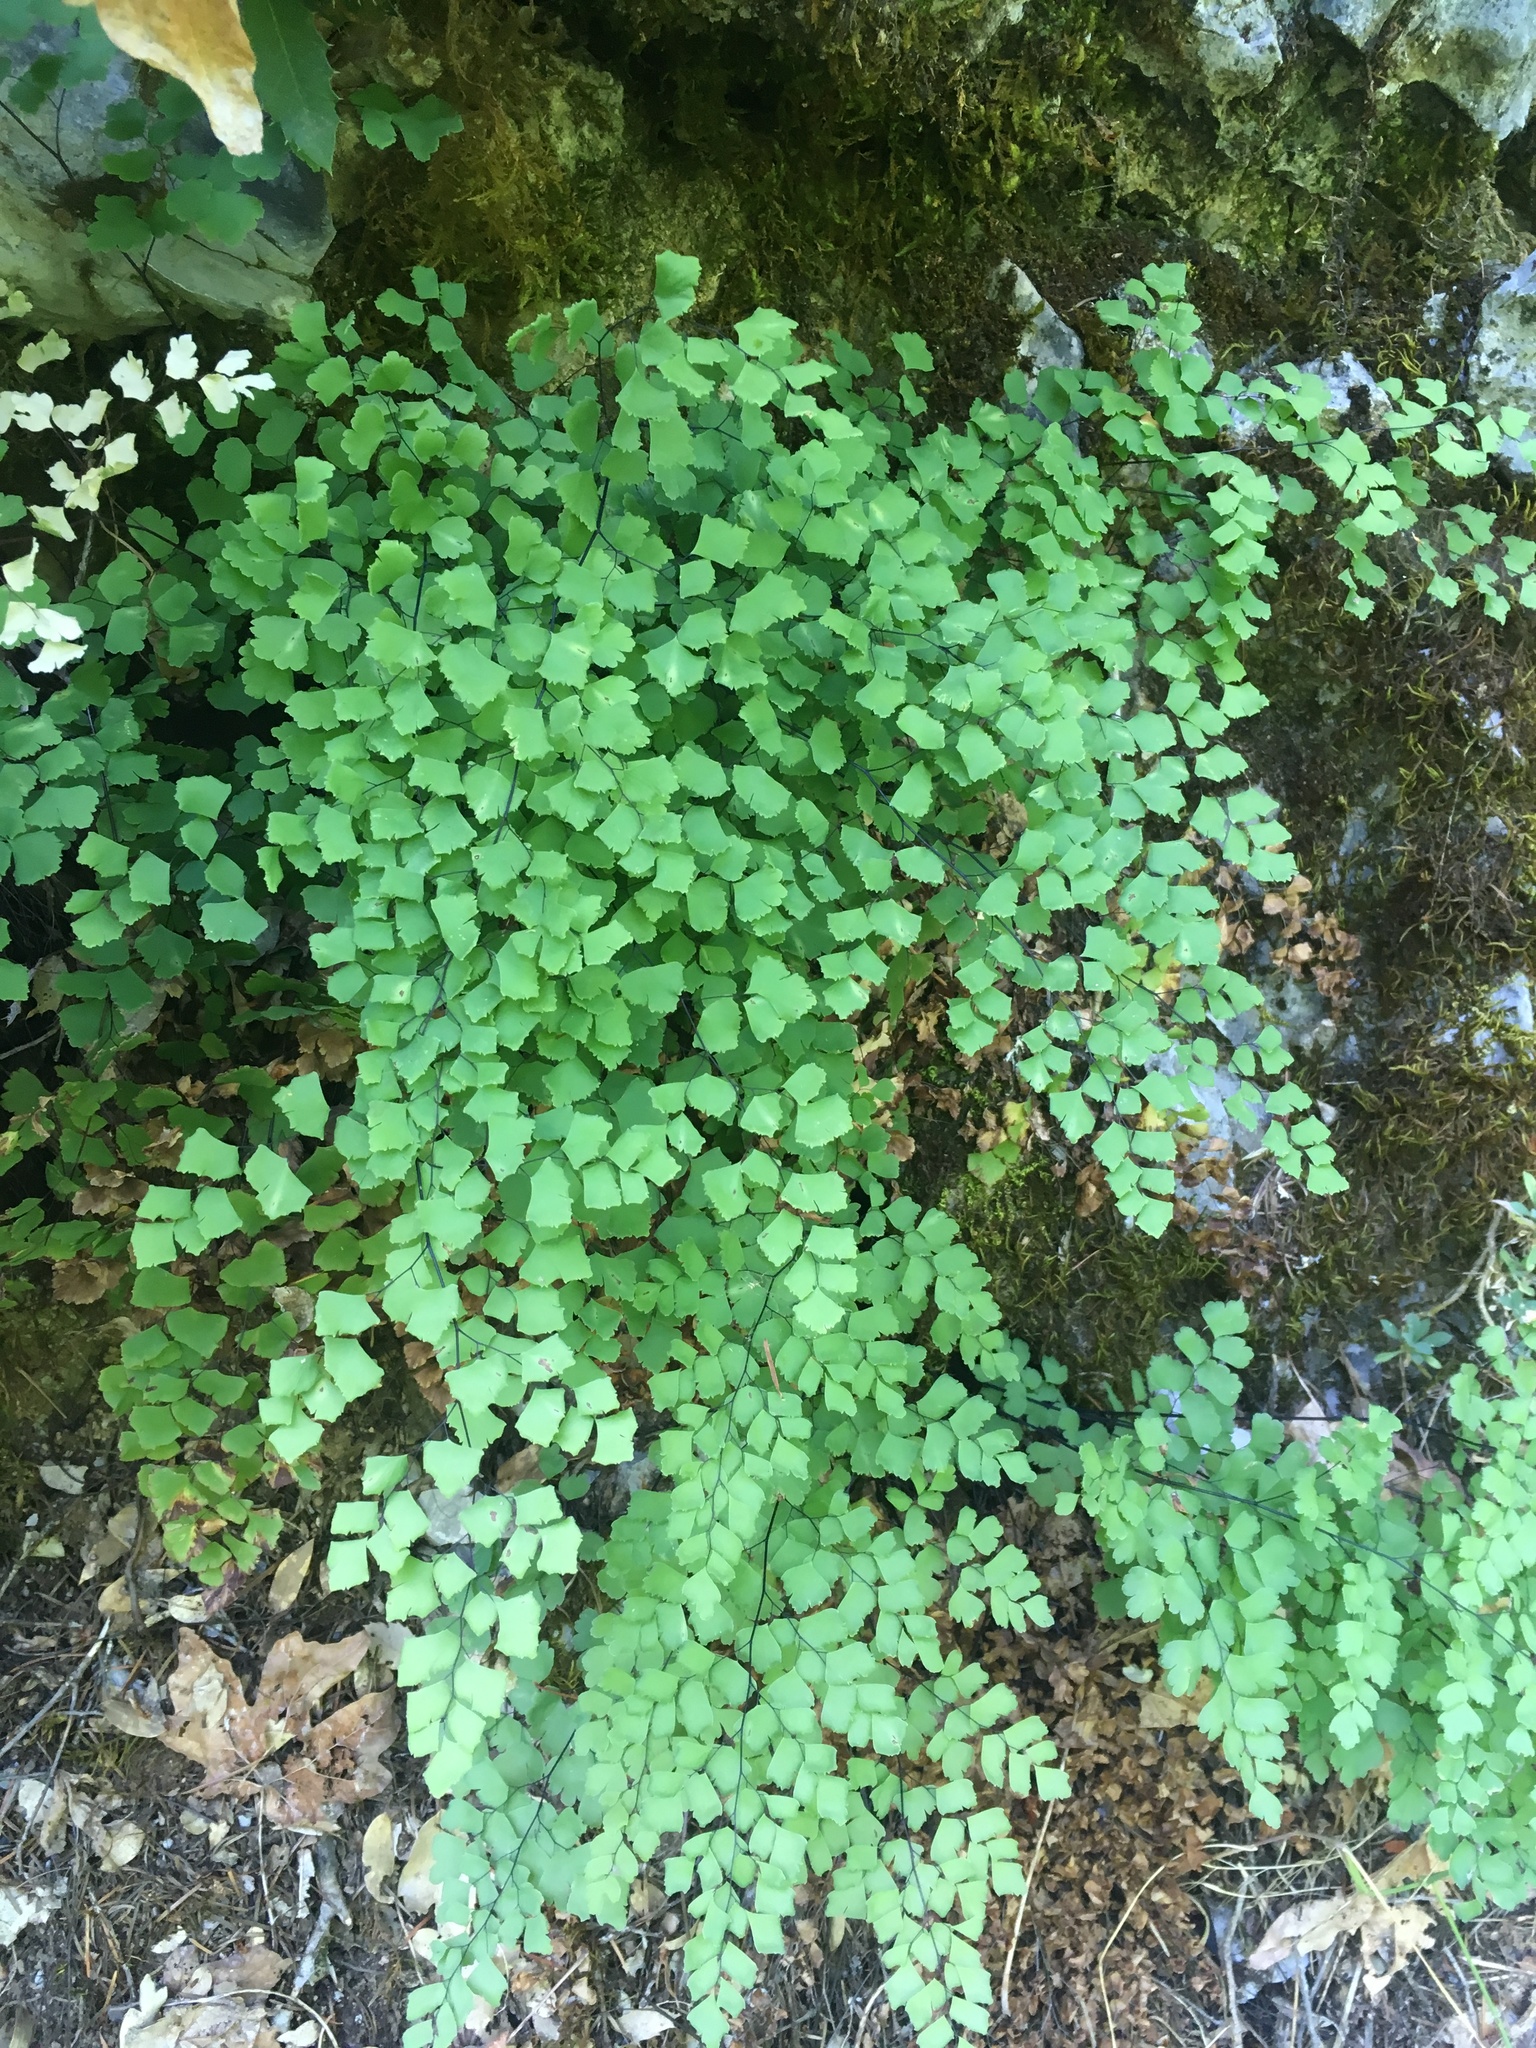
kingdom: Plantae
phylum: Tracheophyta
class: Polypodiopsida
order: Polypodiales
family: Pteridaceae
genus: Adiantum
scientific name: Adiantum shastense
